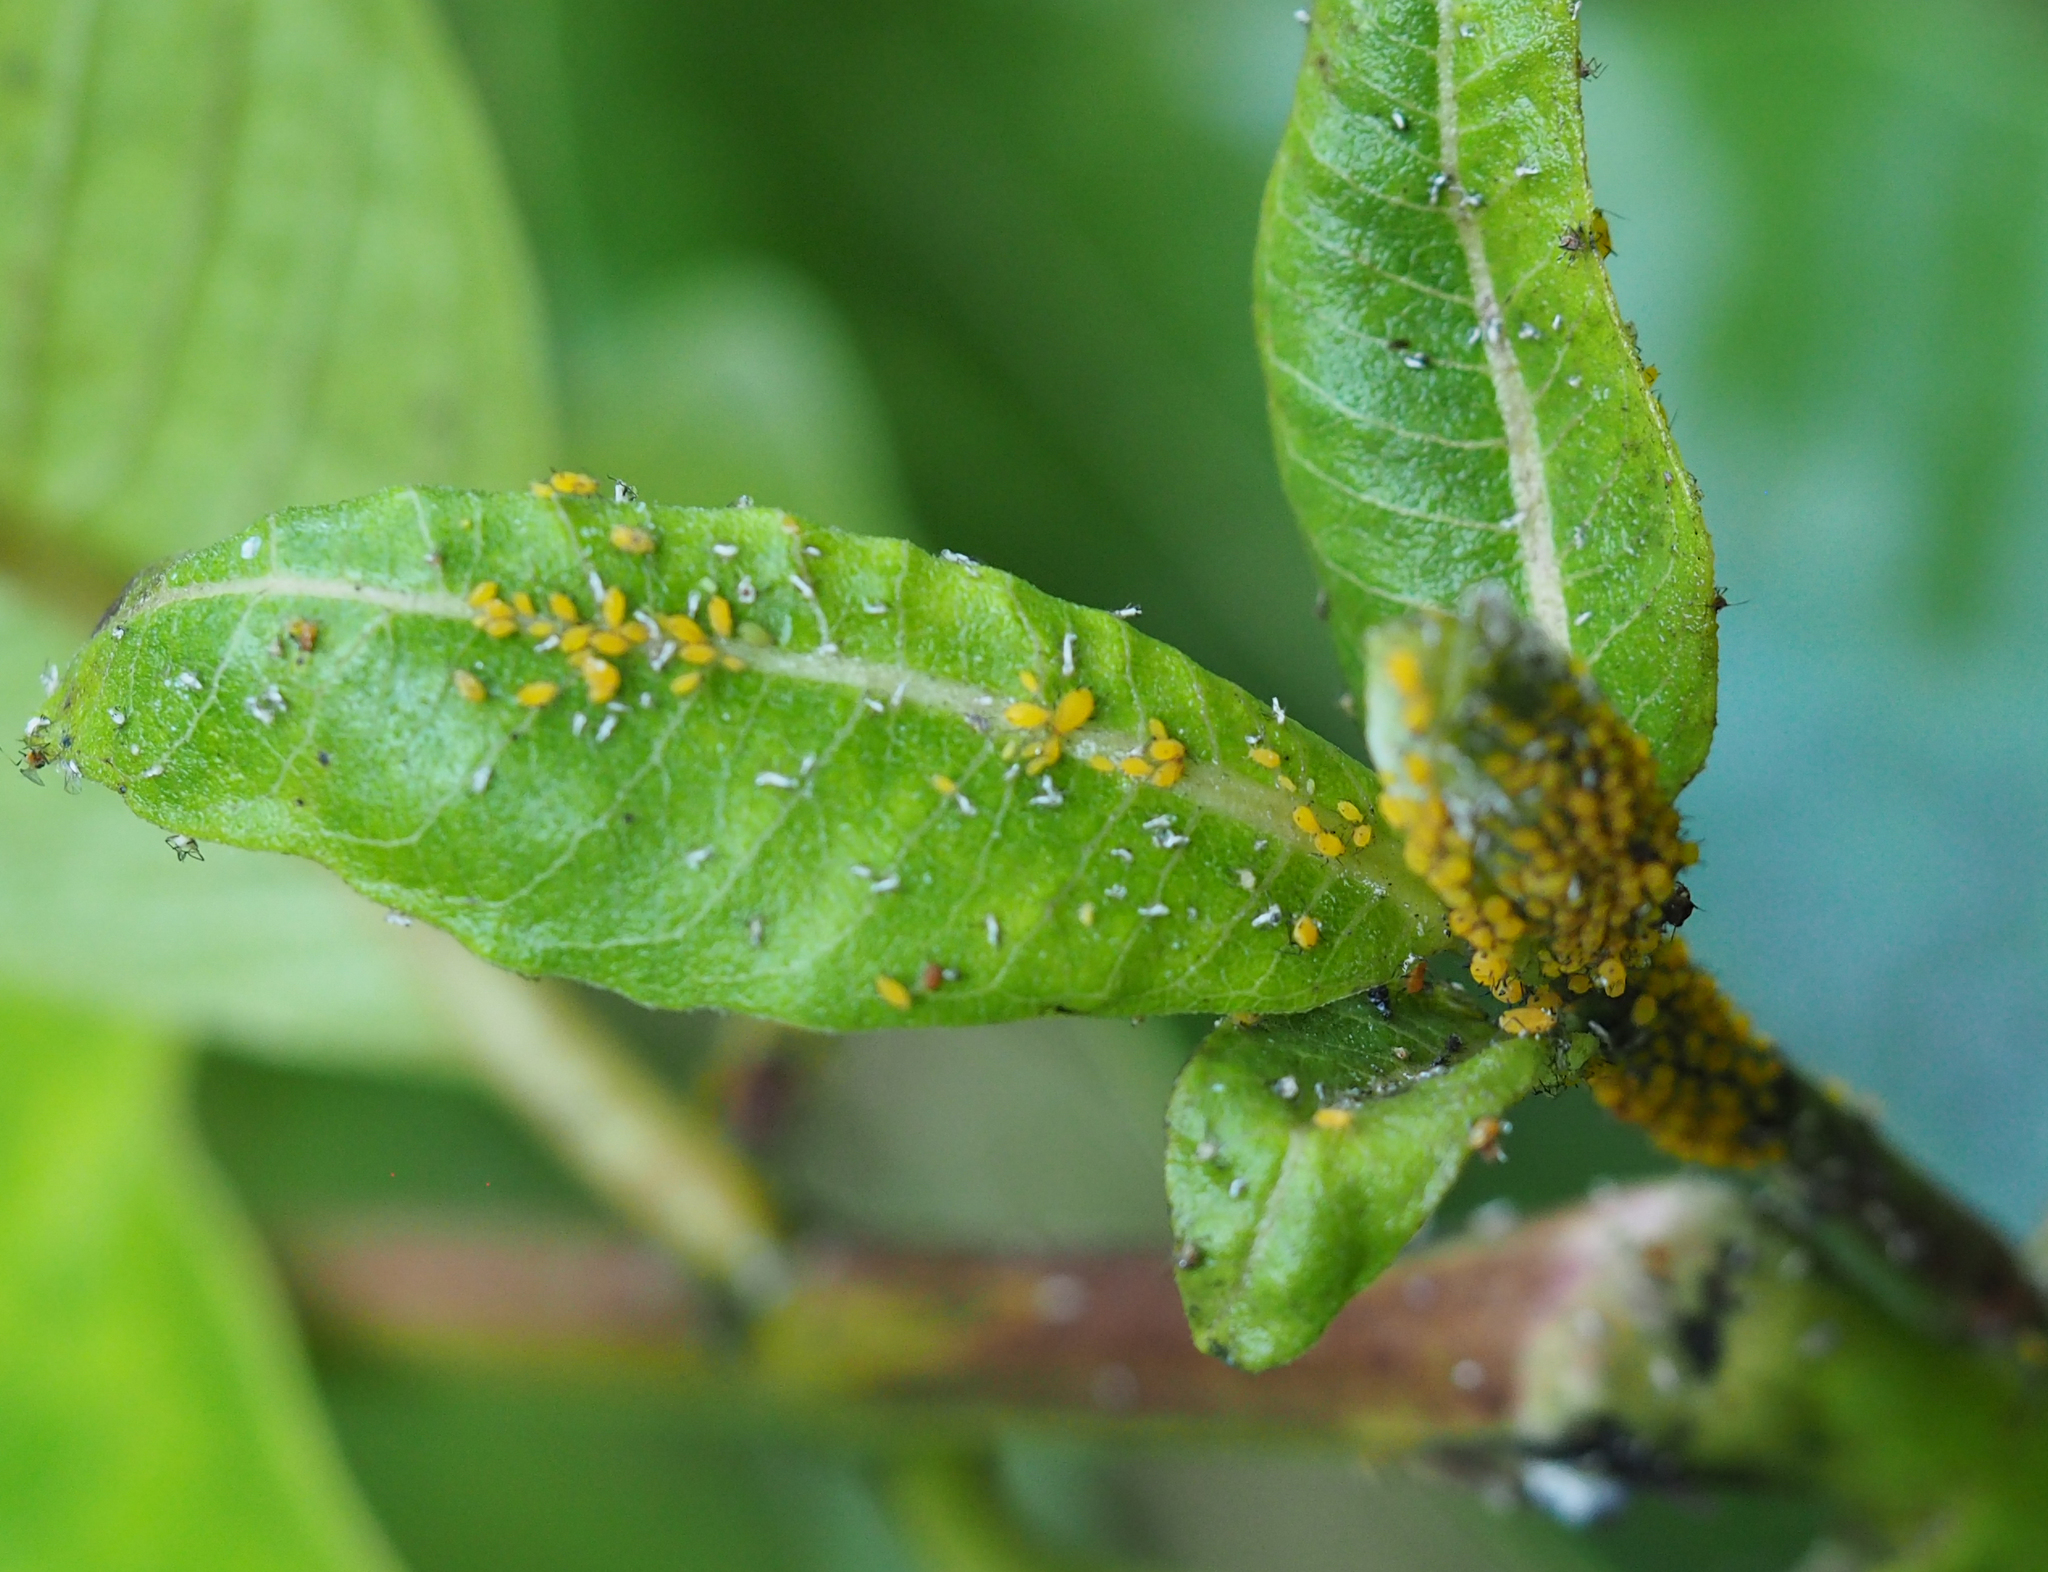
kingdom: Animalia
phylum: Arthropoda
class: Insecta
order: Hemiptera
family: Aphididae
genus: Aphis
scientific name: Aphis nerii
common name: Oleander aphid
